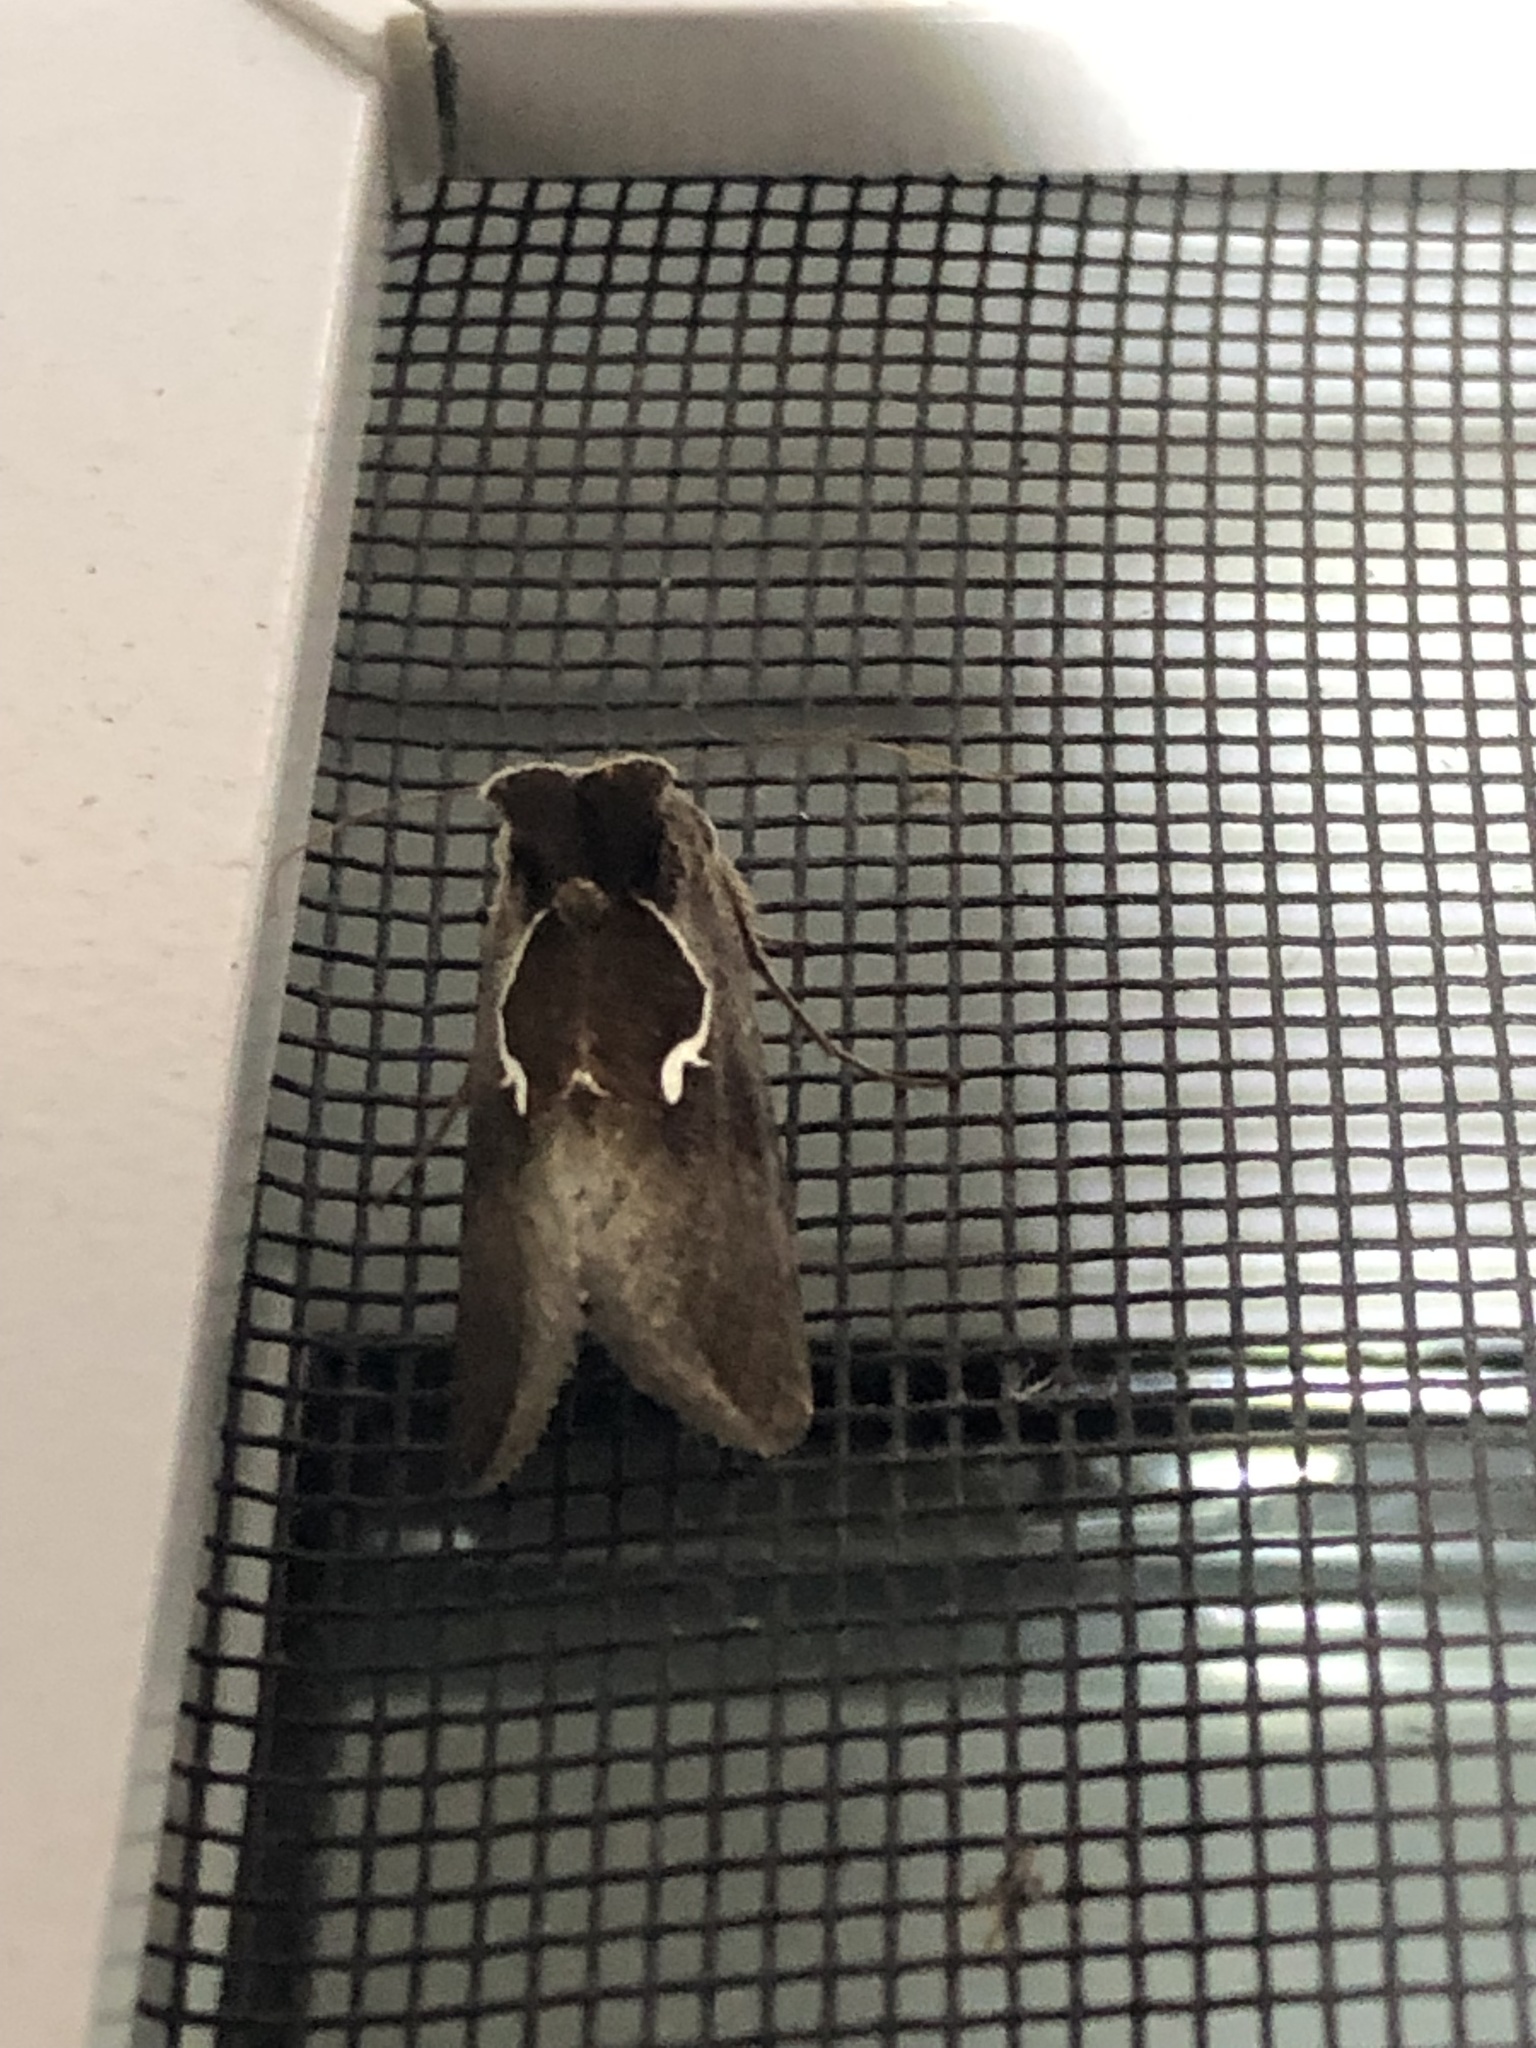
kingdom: Animalia
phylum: Arthropoda
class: Insecta
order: Lepidoptera
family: Noctuidae
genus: Anagrapha
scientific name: Anagrapha falcifera
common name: Celery looper
